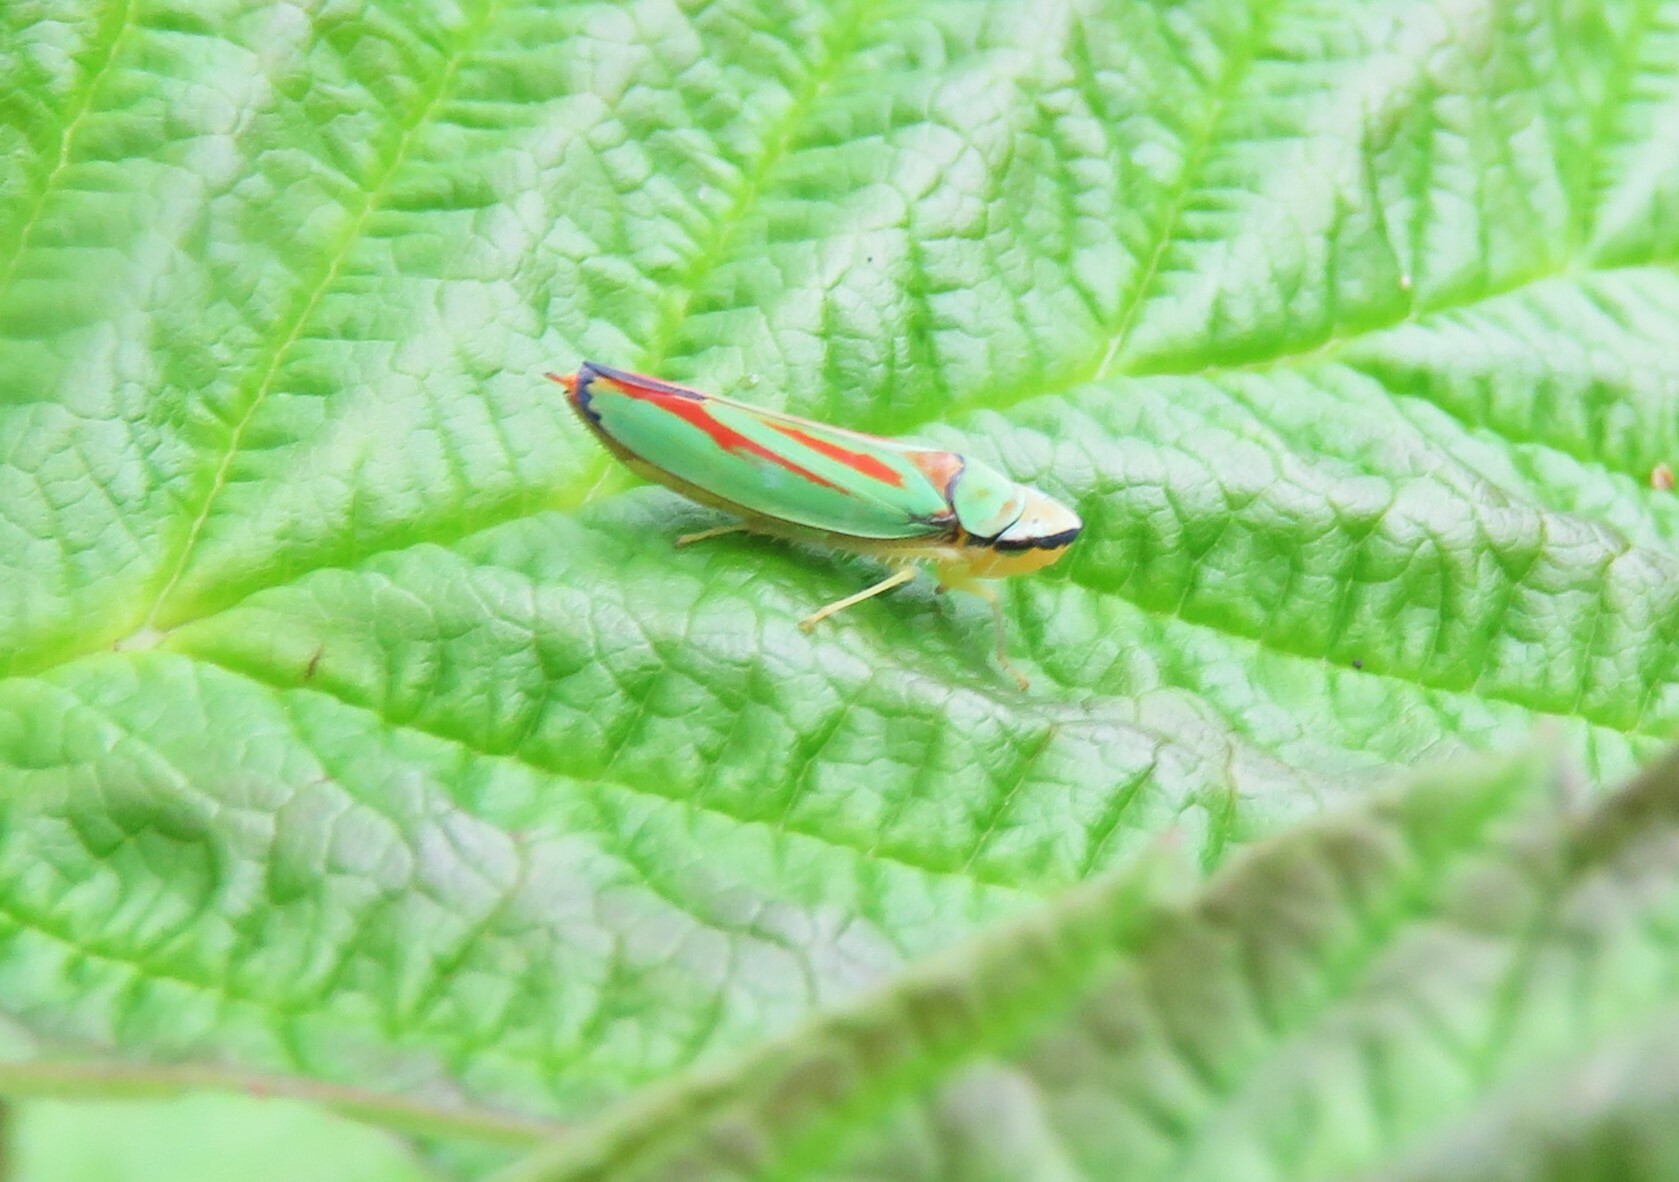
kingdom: Animalia
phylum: Arthropoda
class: Insecta
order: Hemiptera
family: Cicadellidae
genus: Graphocephala
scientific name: Graphocephala fennahi
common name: Rhododendron leafhopper
